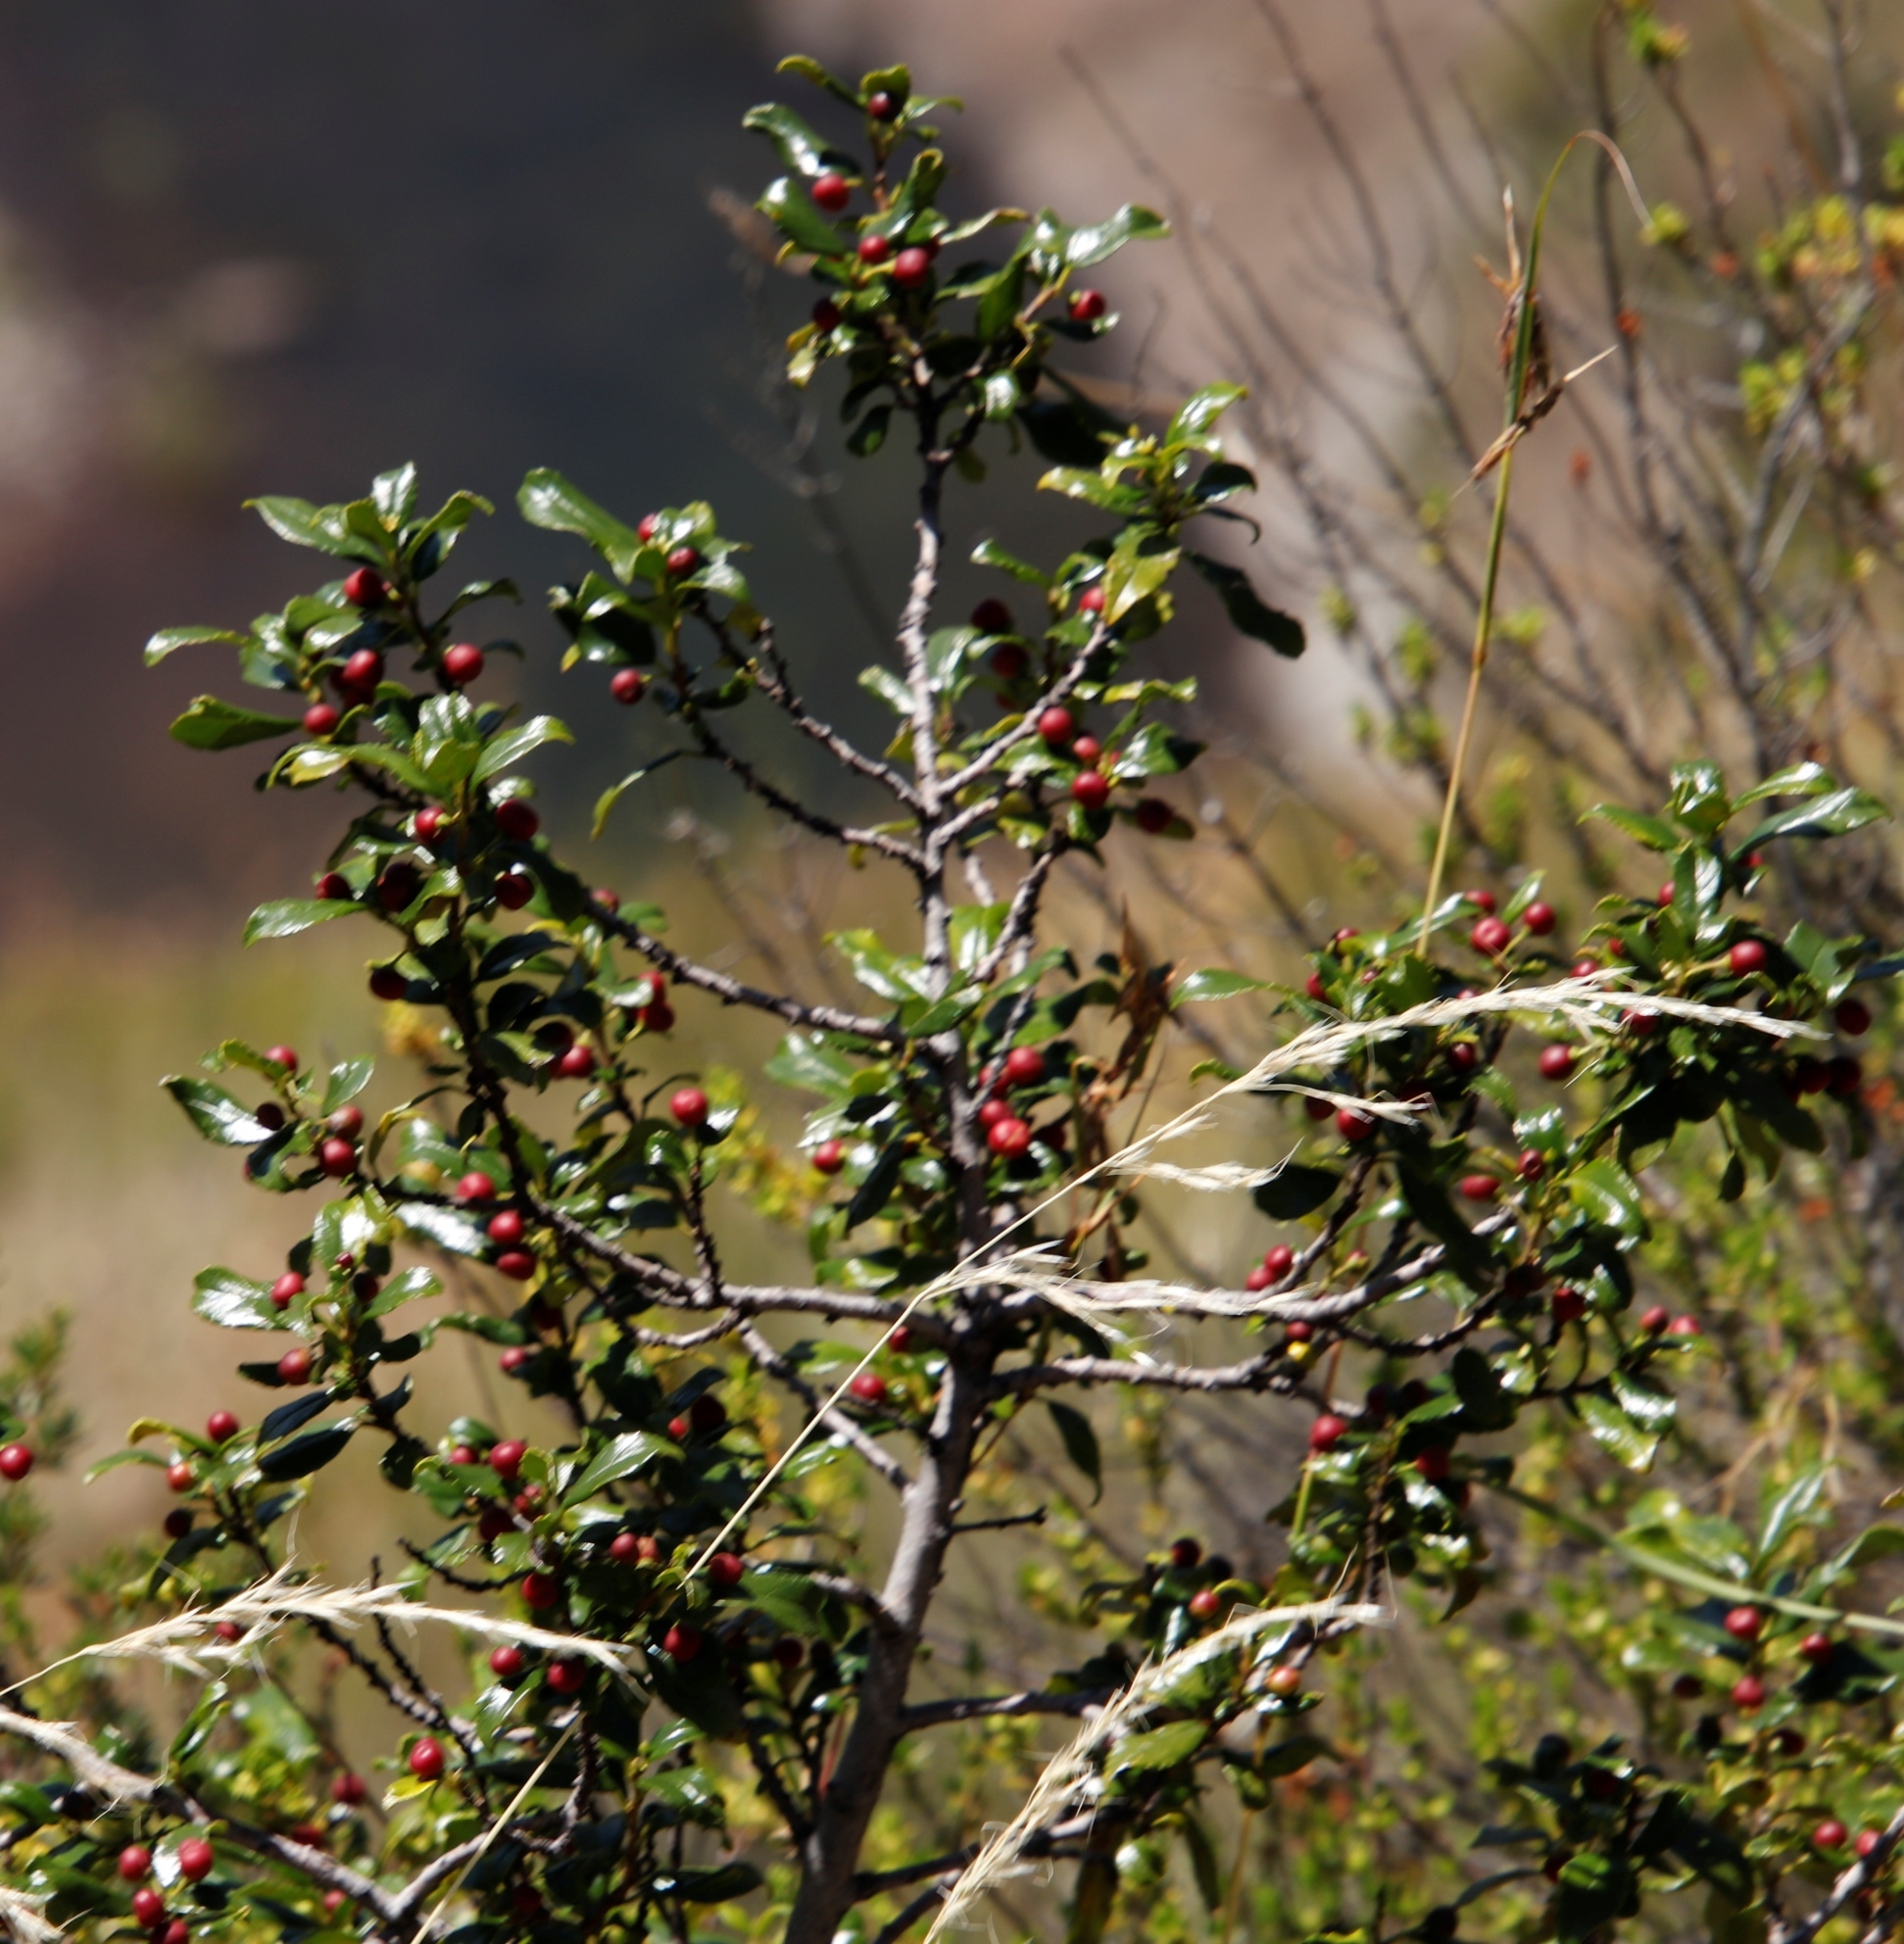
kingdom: Plantae
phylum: Tracheophyta
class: Magnoliopsida
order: Rosales
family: Rhamnaceae
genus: Rhamnus
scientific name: Rhamnus prinoides
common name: Dogwood
